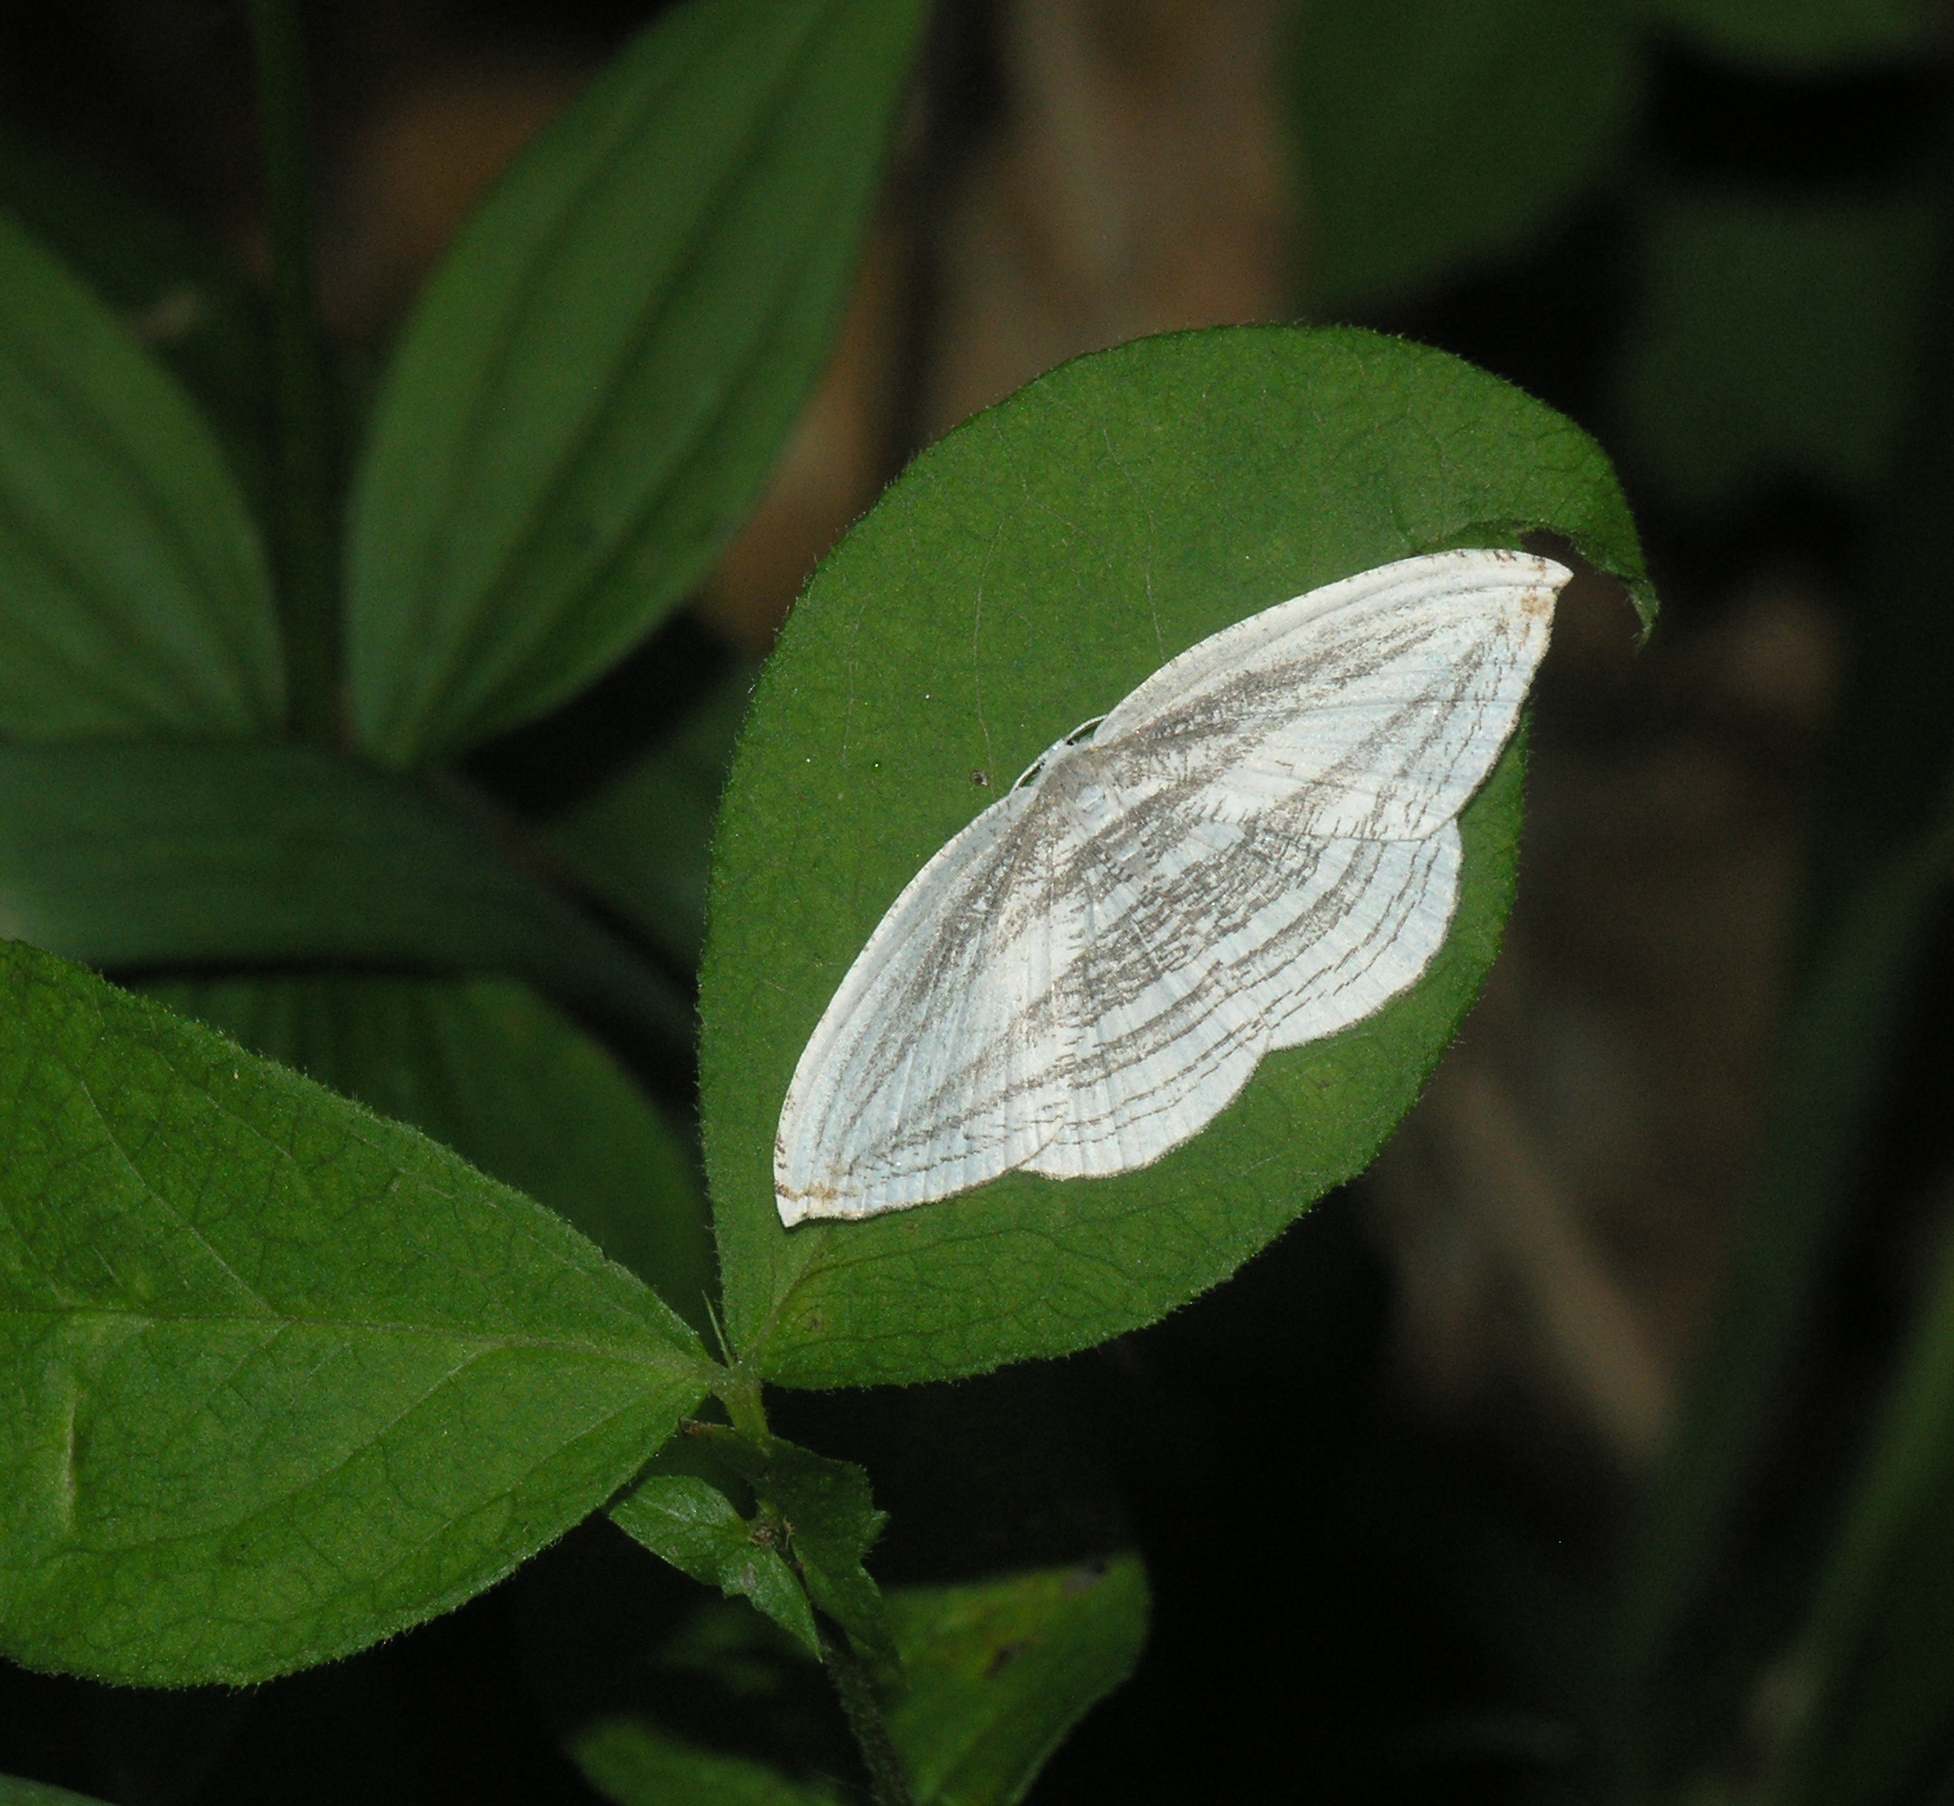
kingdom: Animalia
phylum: Arthropoda
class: Insecta
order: Lepidoptera
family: Uraniidae
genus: Acropteris
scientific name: Acropteris iphiata
